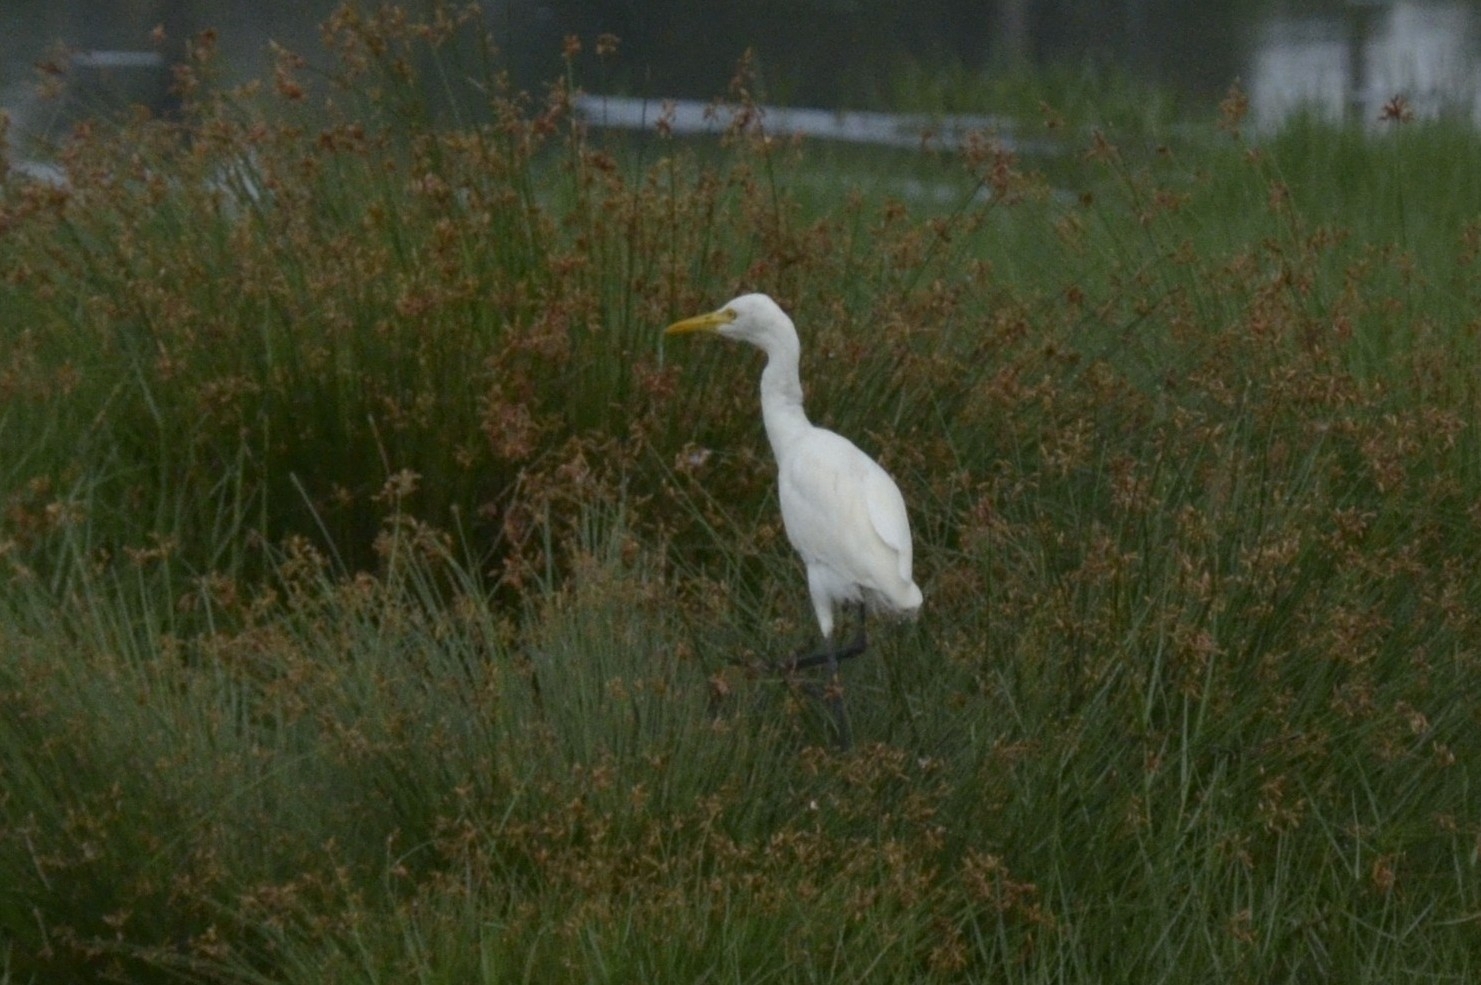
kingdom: Animalia
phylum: Chordata
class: Aves
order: Pelecaniformes
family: Ardeidae
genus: Bubulcus
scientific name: Bubulcus coromandus
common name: Eastern cattle egret
